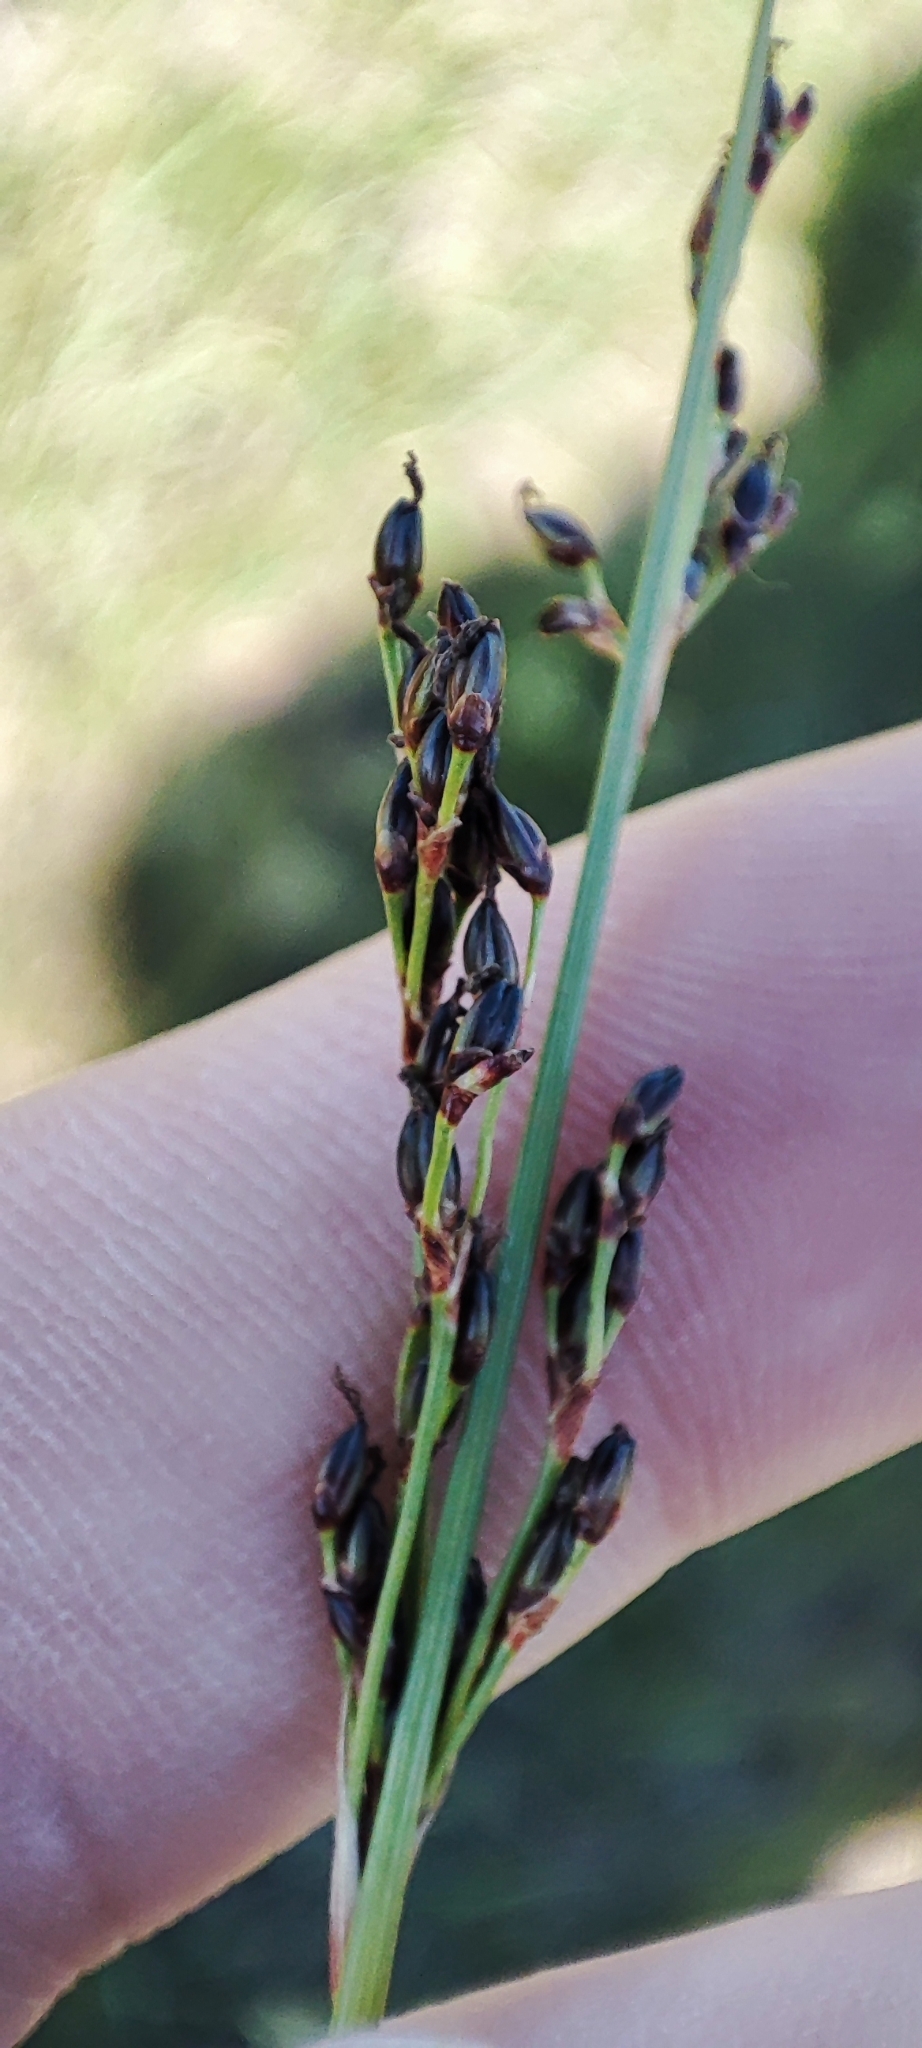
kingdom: Plantae
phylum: Tracheophyta
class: Liliopsida
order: Poales
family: Juncaceae
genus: Juncus
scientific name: Juncus gerardi
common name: Saltmarsh rush
